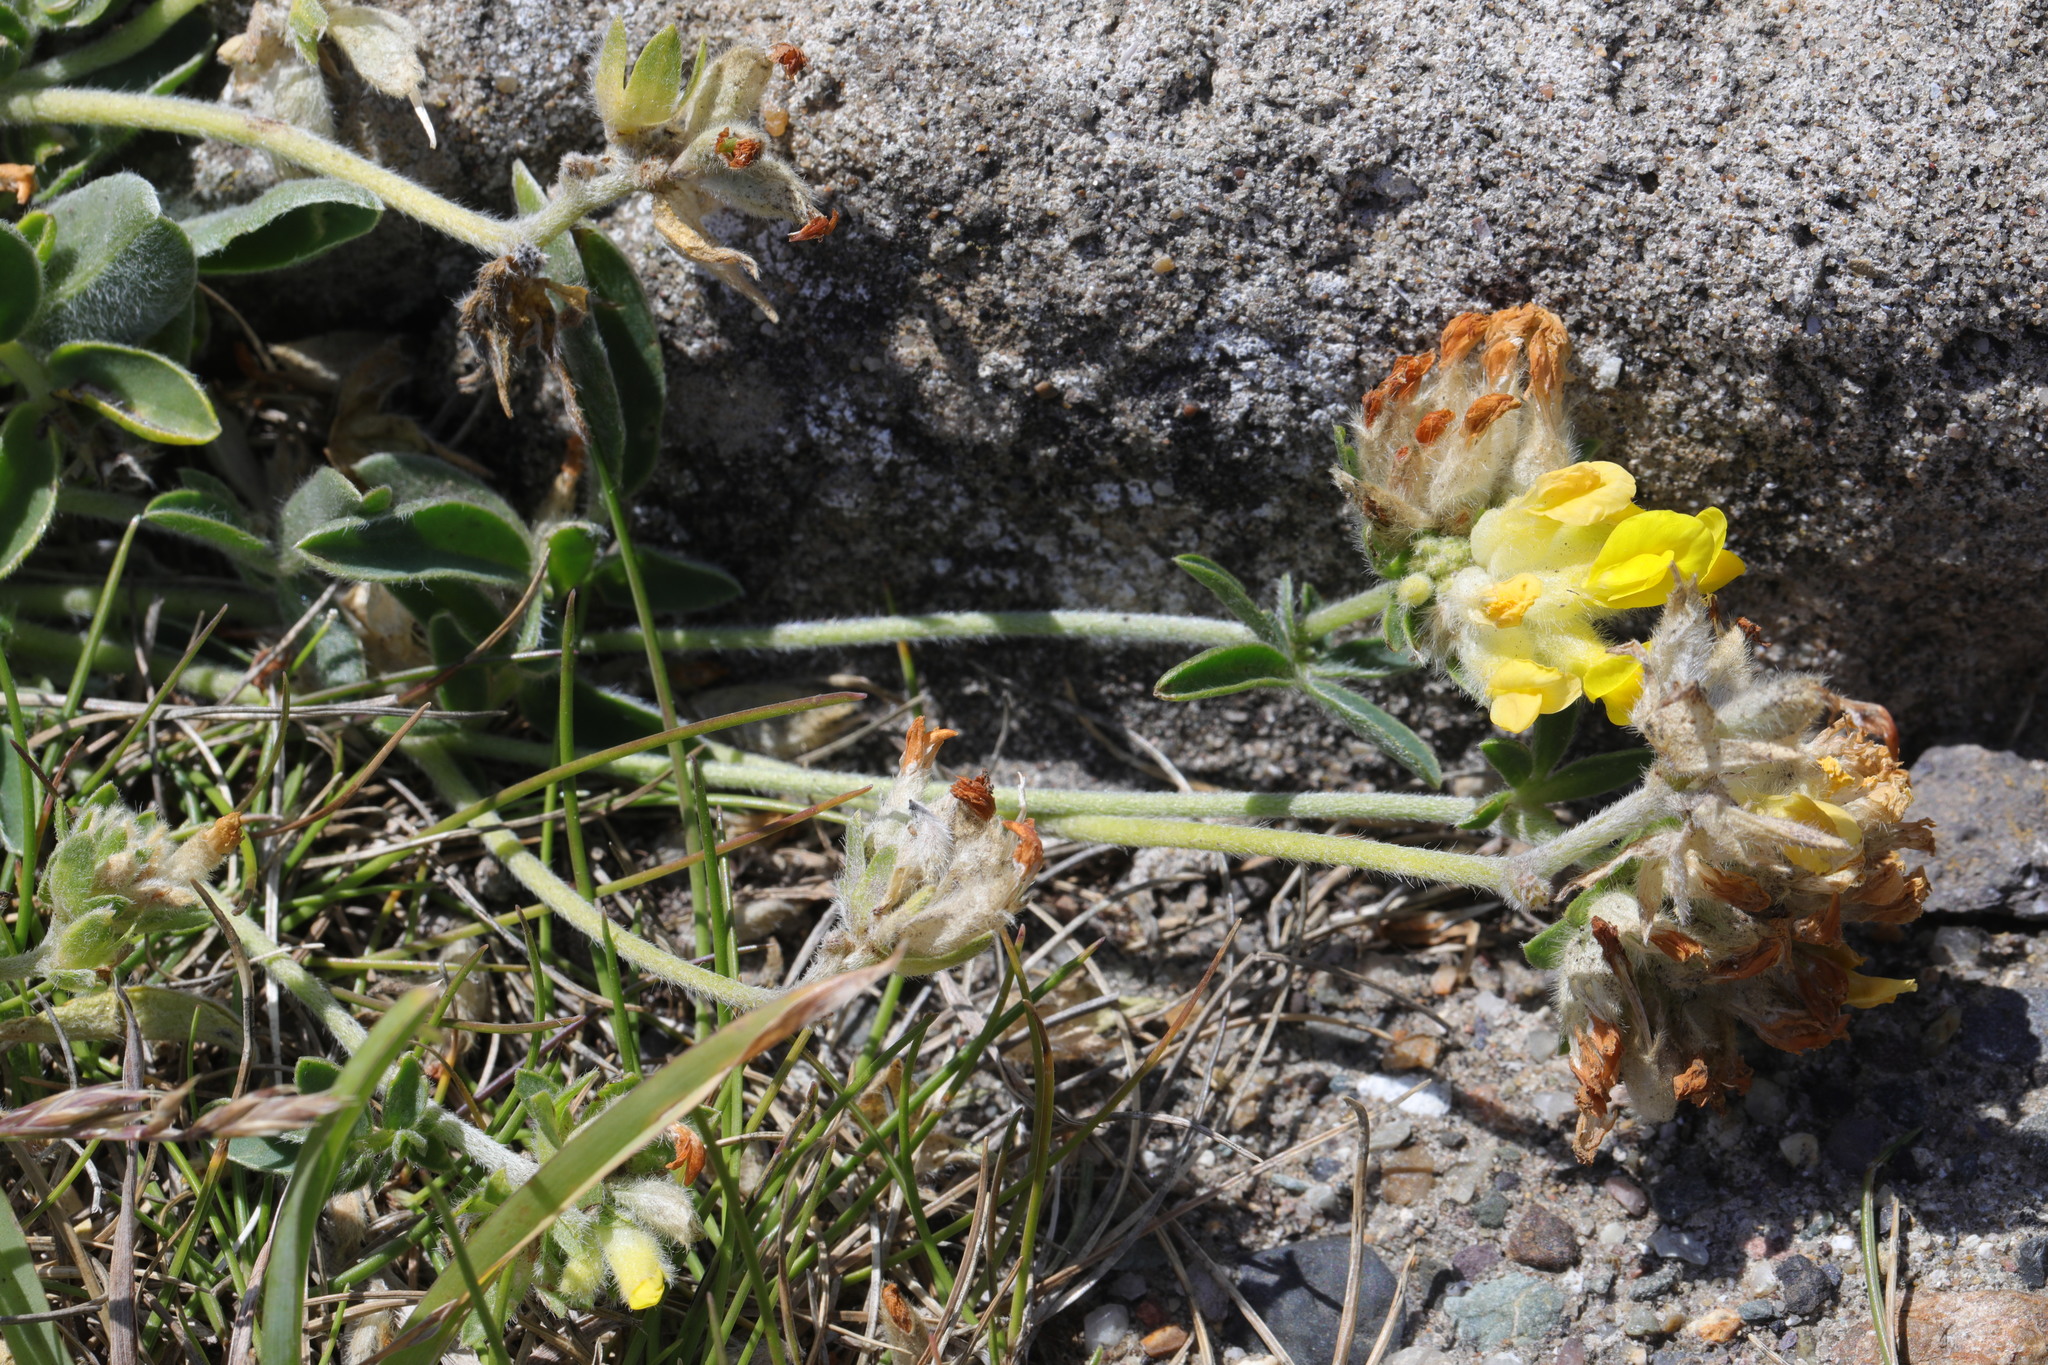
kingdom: Plantae
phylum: Tracheophyta
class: Magnoliopsida
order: Fabales
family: Fabaceae
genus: Anthyllis
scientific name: Anthyllis vulneraria
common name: Kidney vetch
